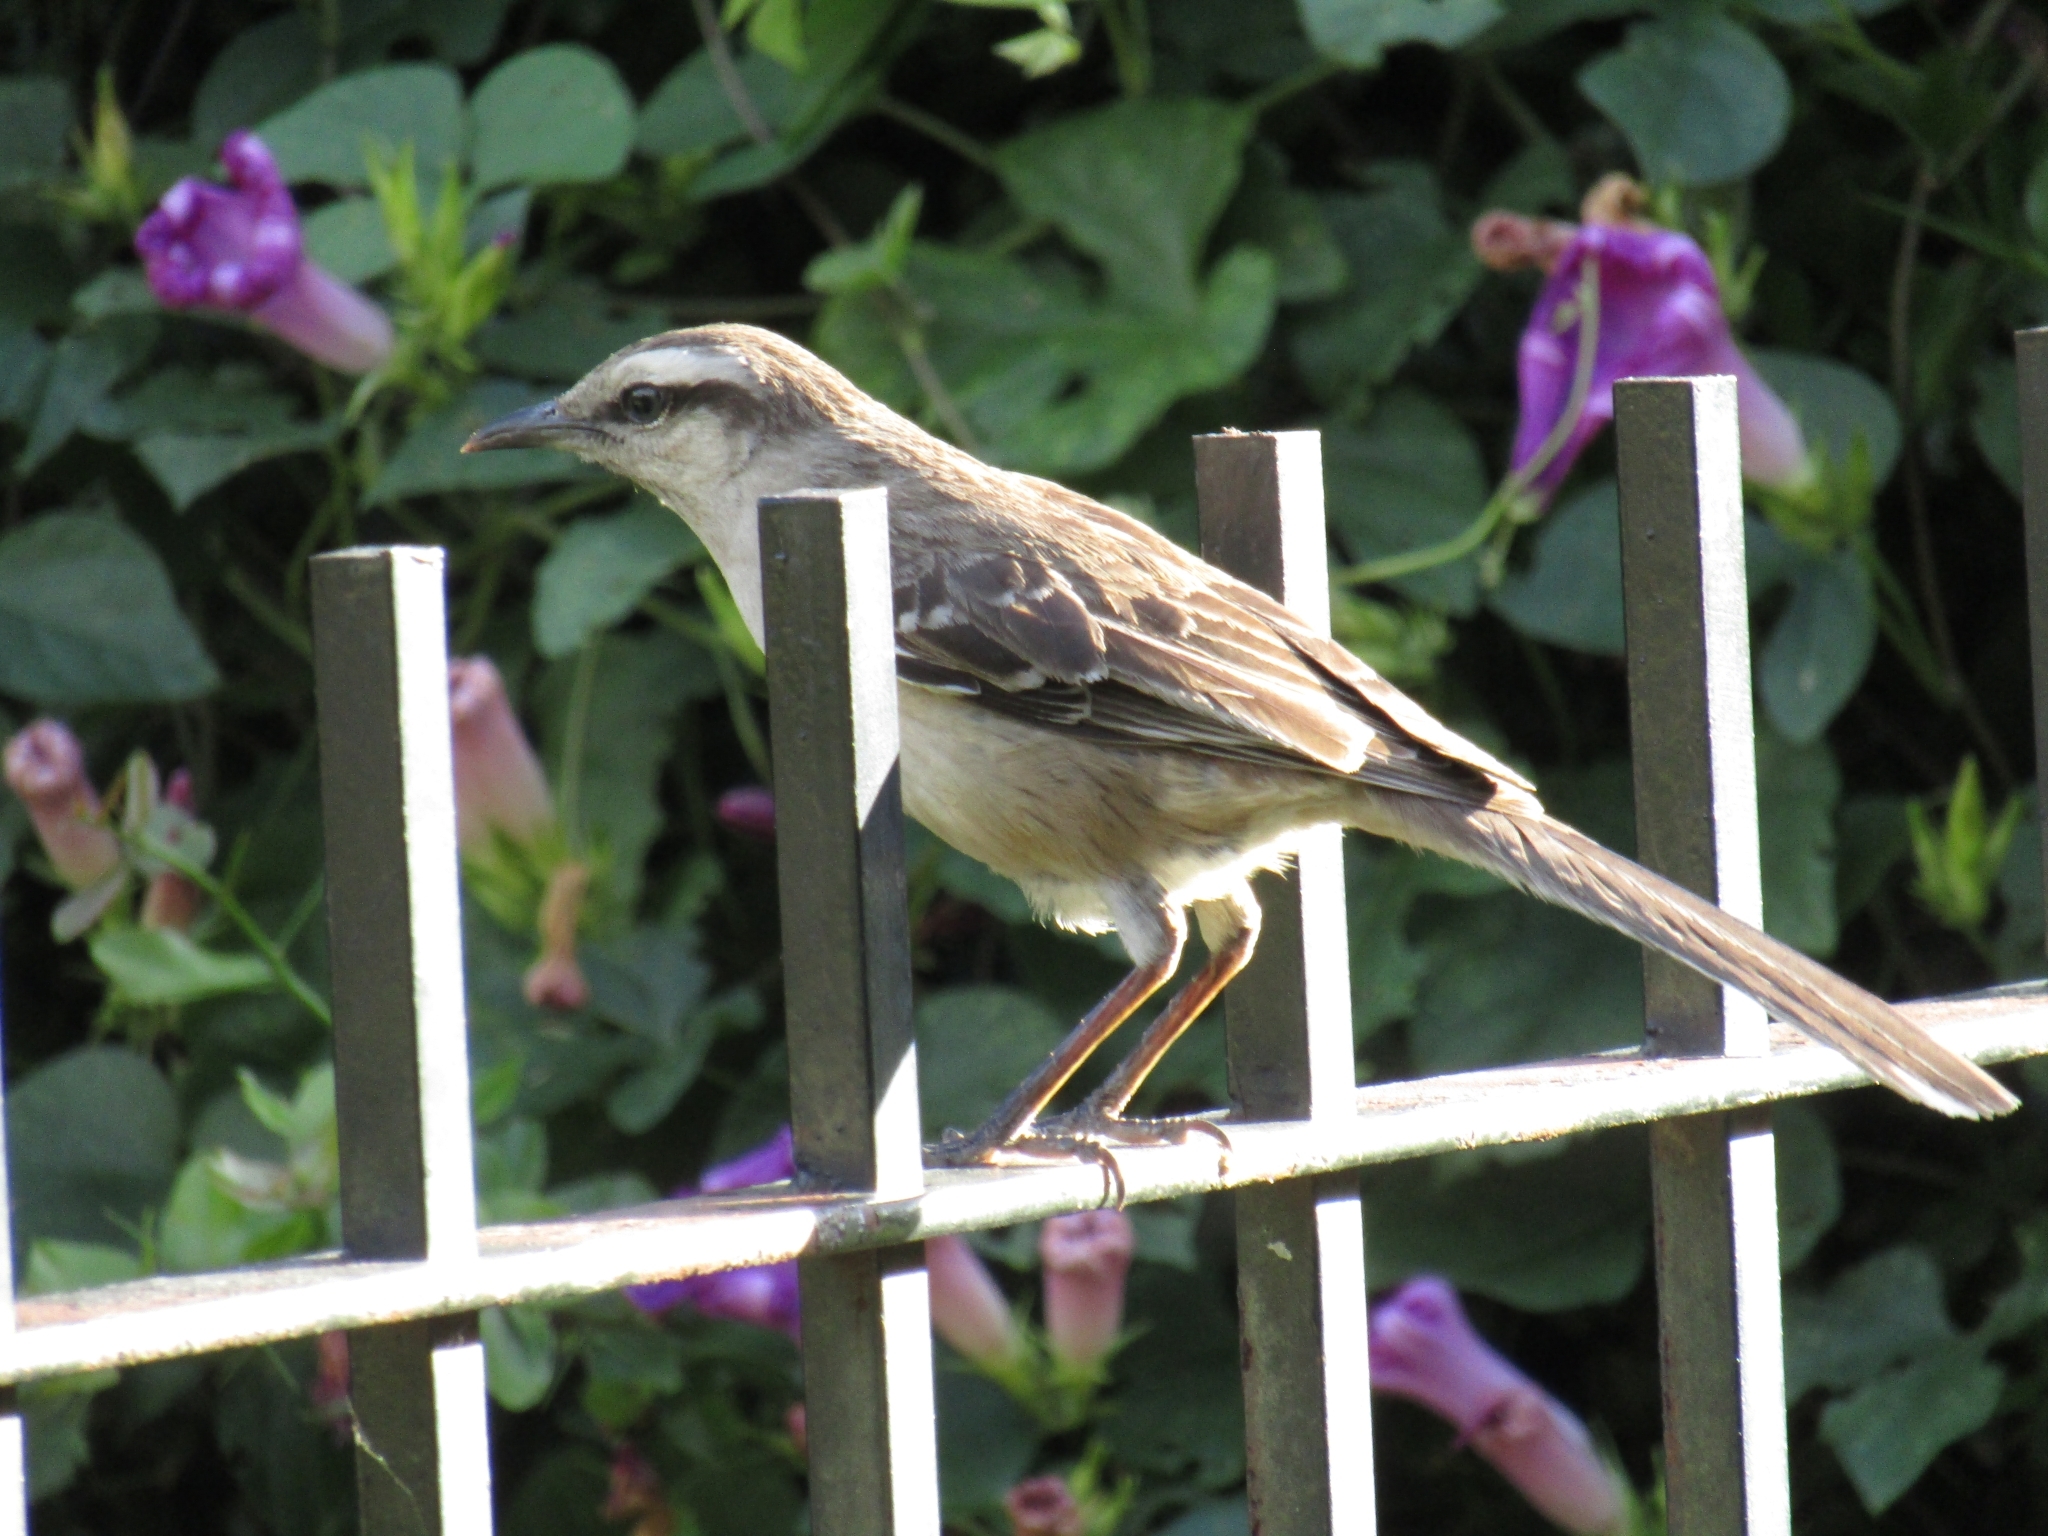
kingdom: Animalia
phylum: Chordata
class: Aves
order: Passeriformes
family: Mimidae
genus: Mimus
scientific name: Mimus saturninus
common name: Chalk-browed mockingbird
